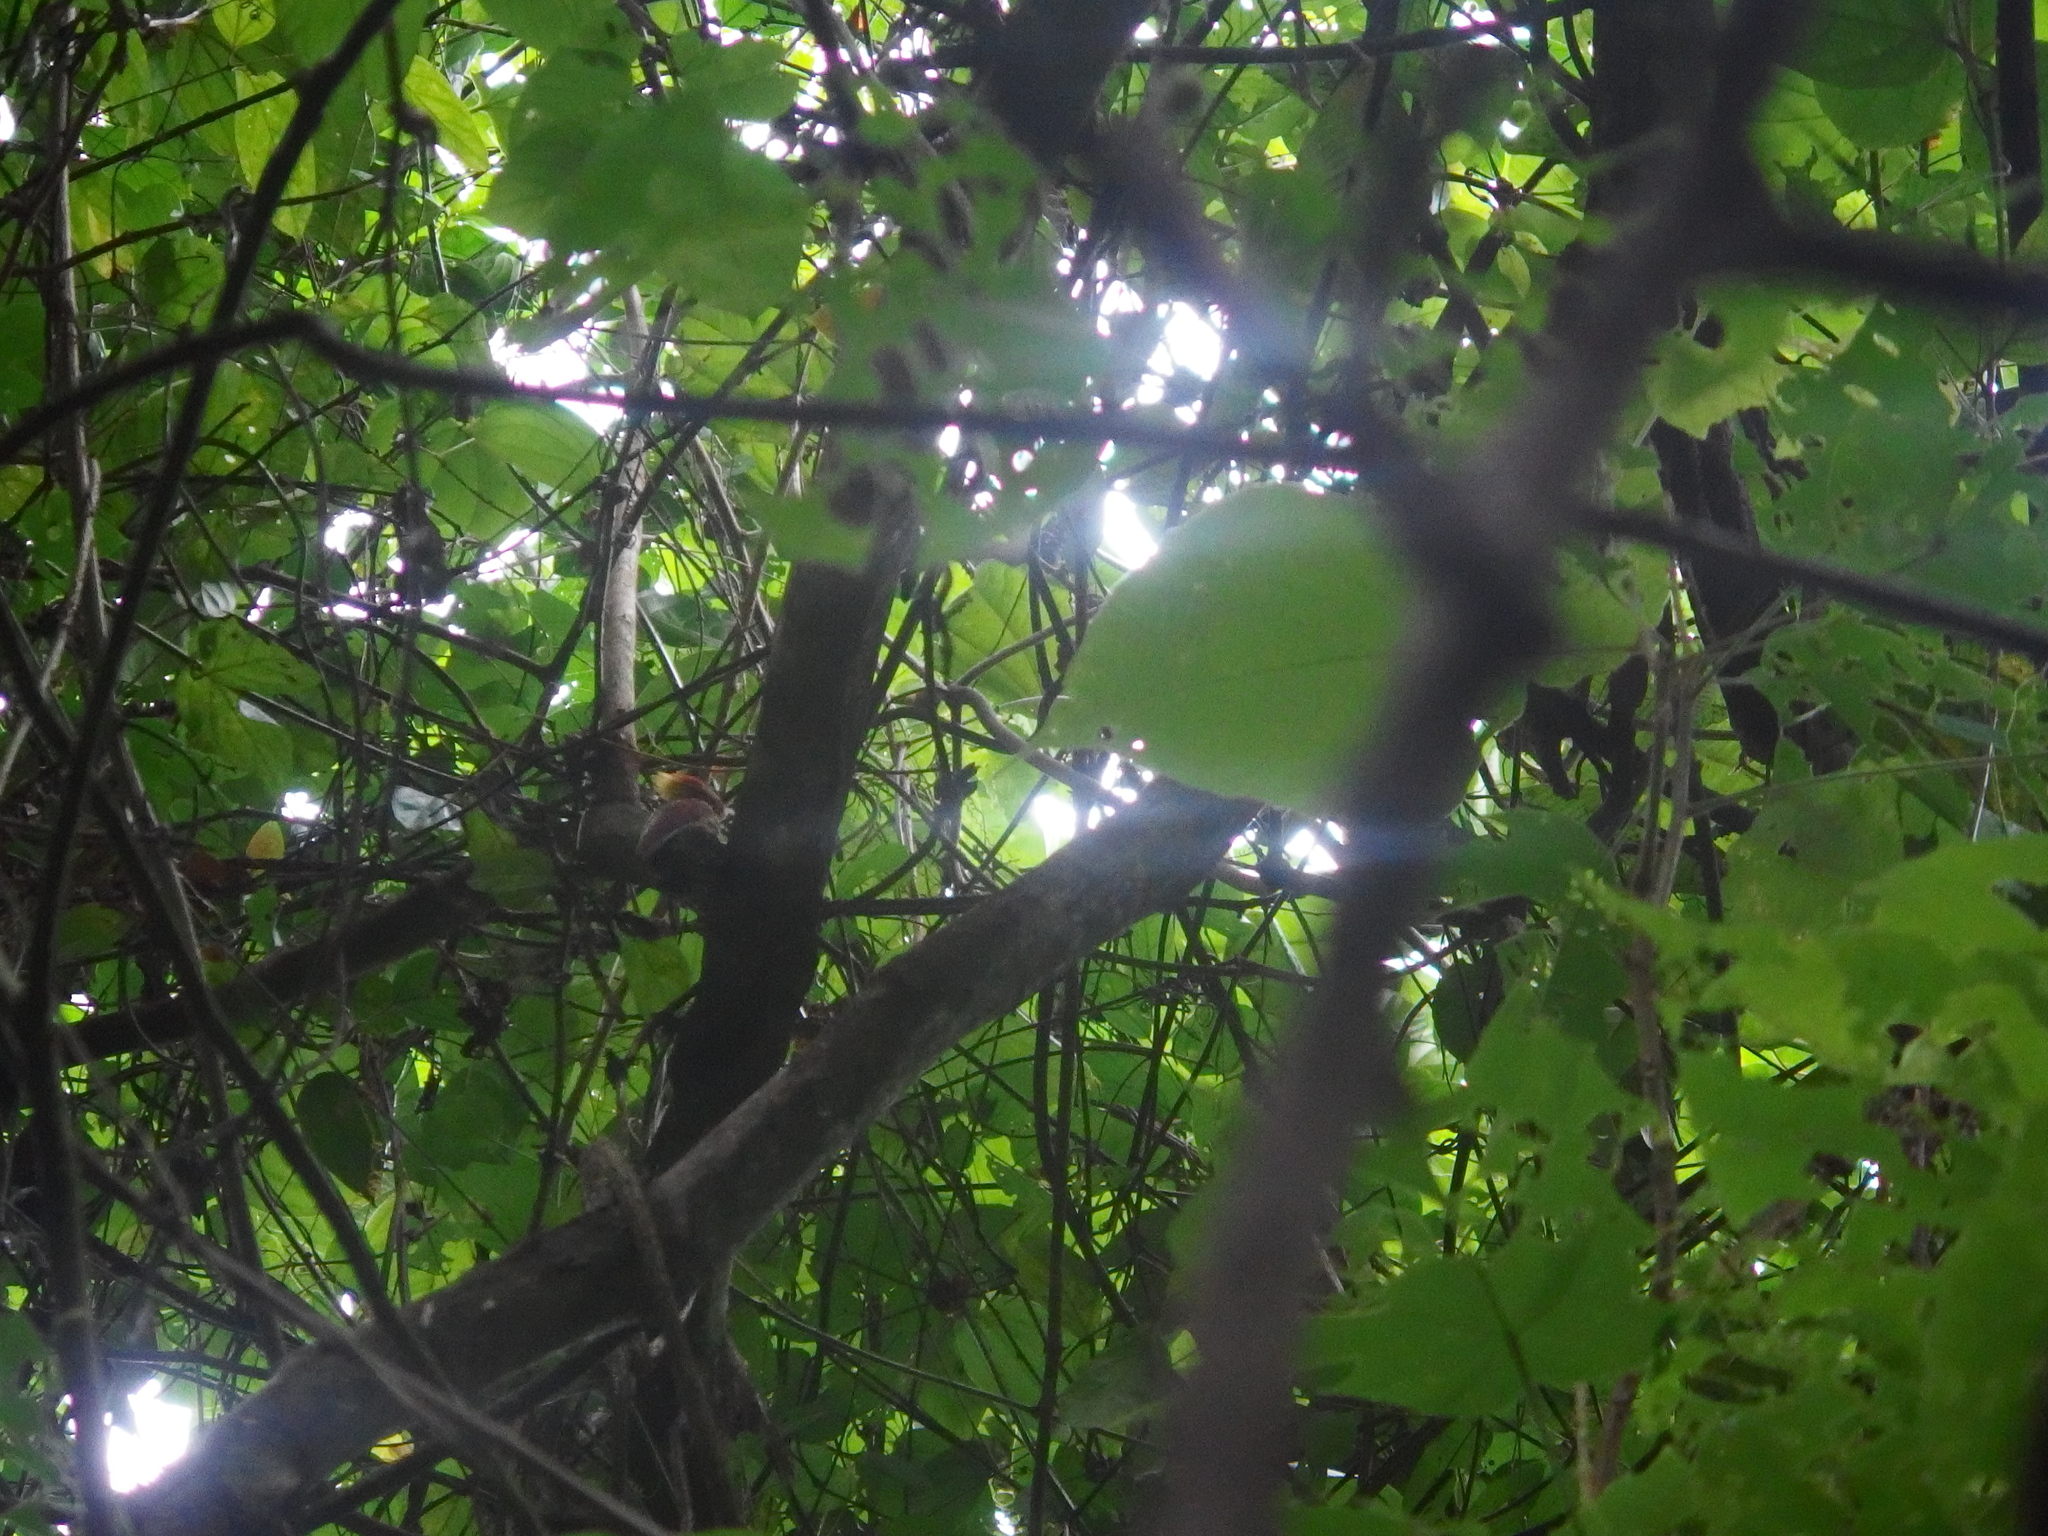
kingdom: Animalia
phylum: Chordata
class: Aves
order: Piciformes
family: Picidae
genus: Chrysophlegma
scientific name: Chrysophlegma miniaceum
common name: Banded woodpecker
